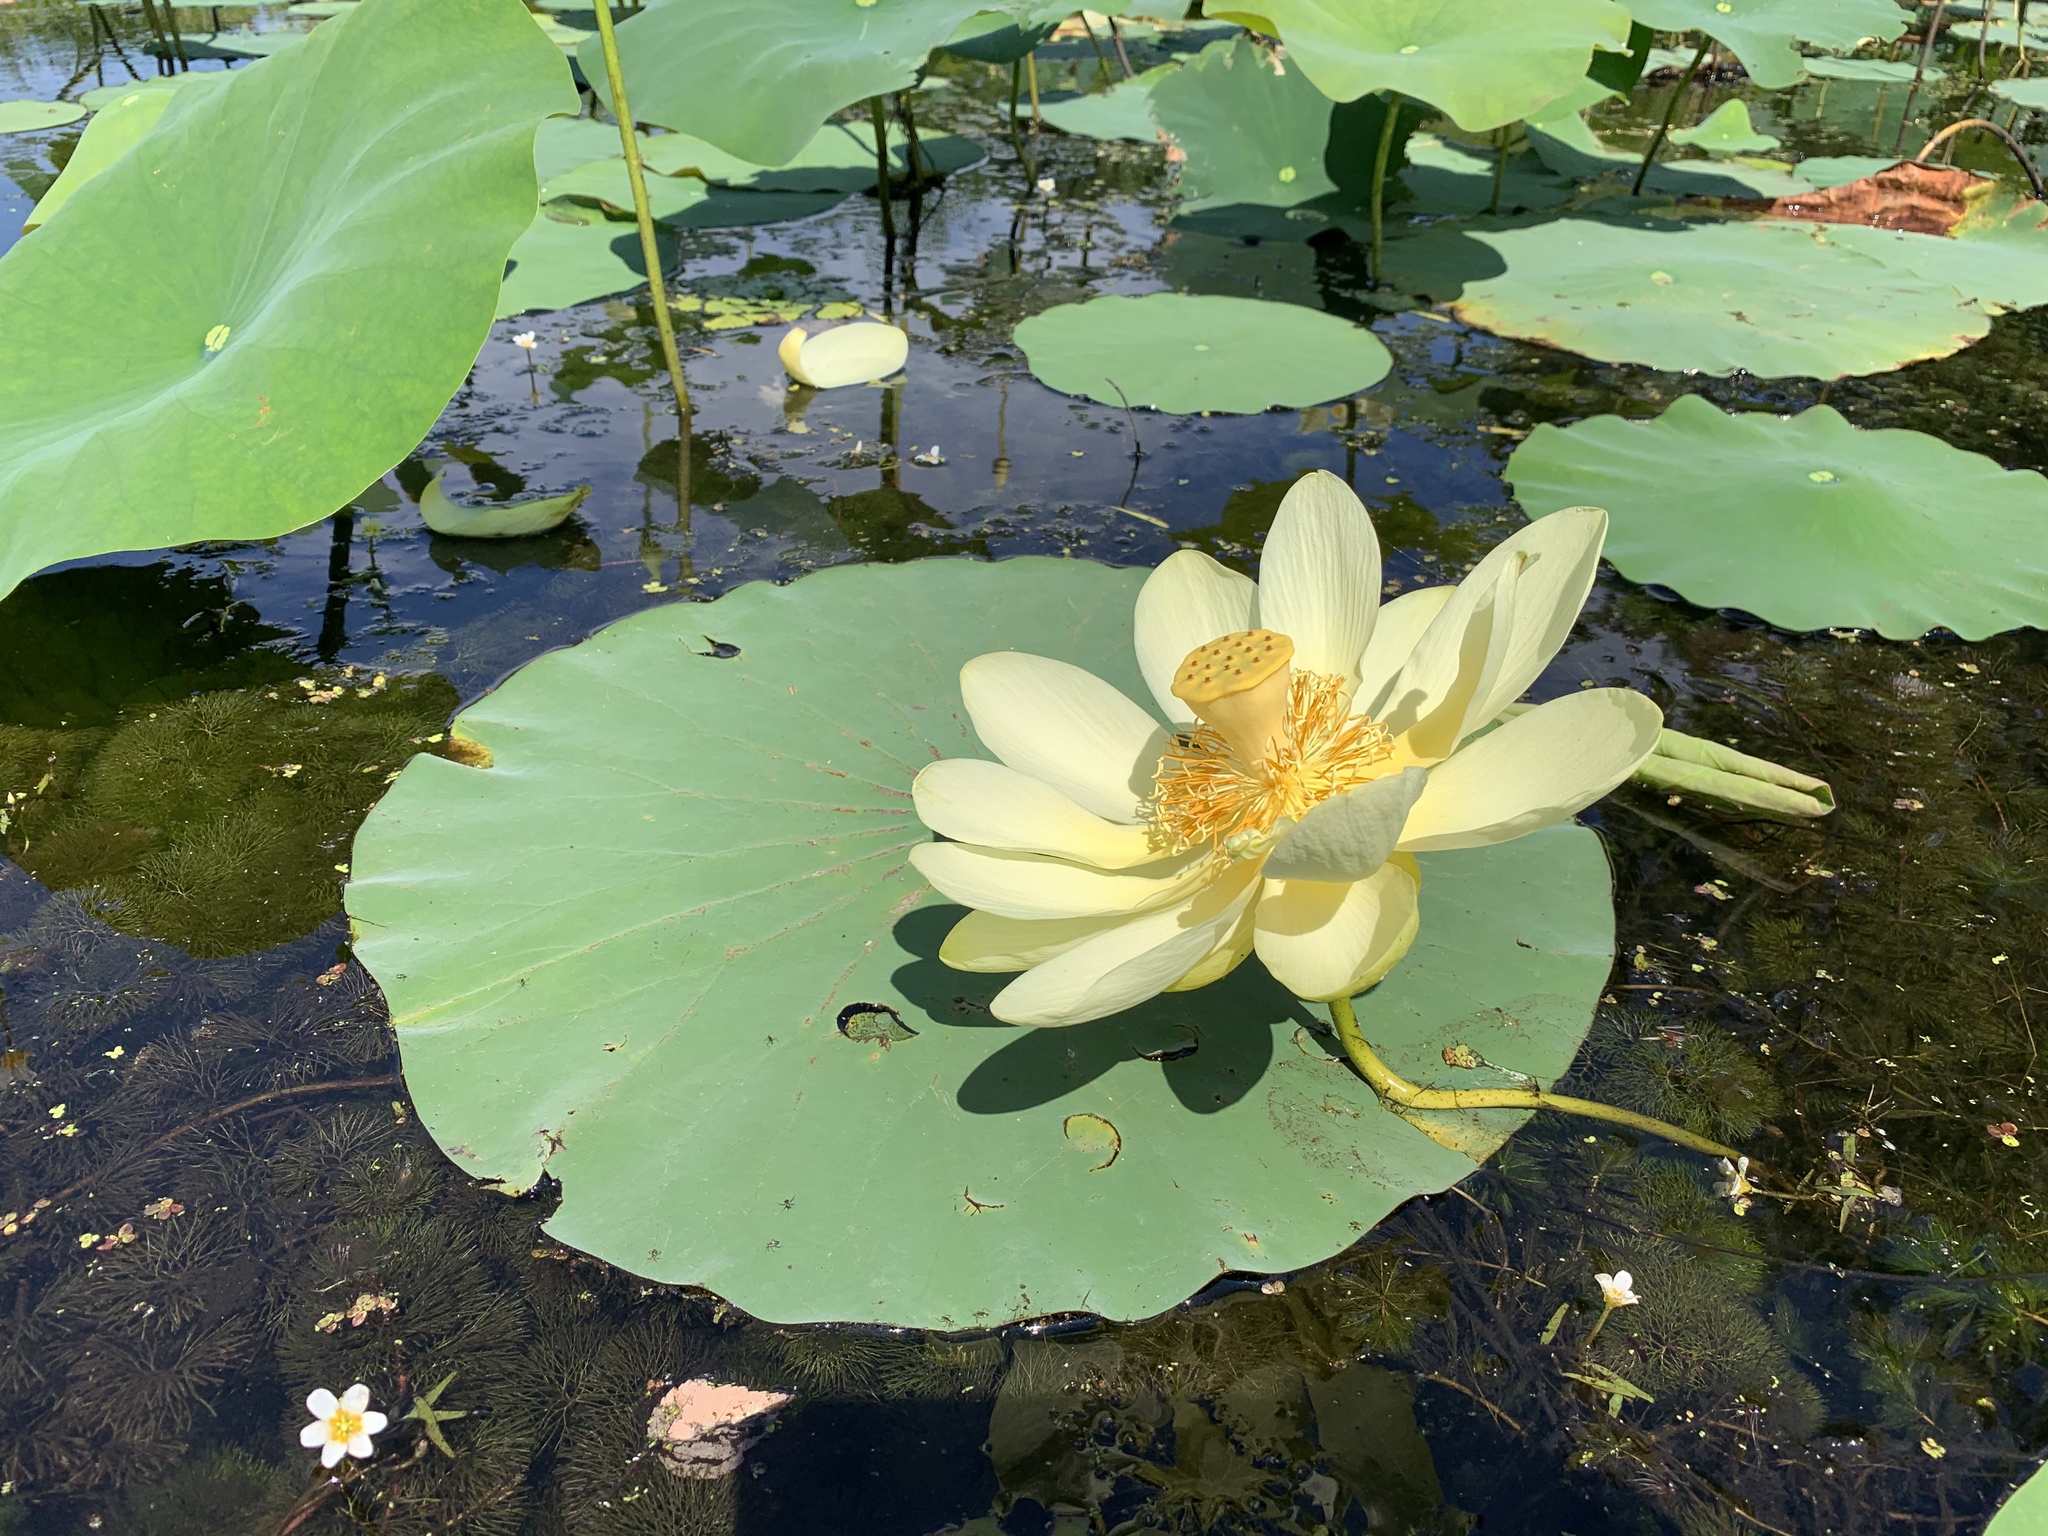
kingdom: Plantae
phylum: Tracheophyta
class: Magnoliopsida
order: Proteales
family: Nelumbonaceae
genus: Nelumbo
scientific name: Nelumbo lutea
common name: American lotus
